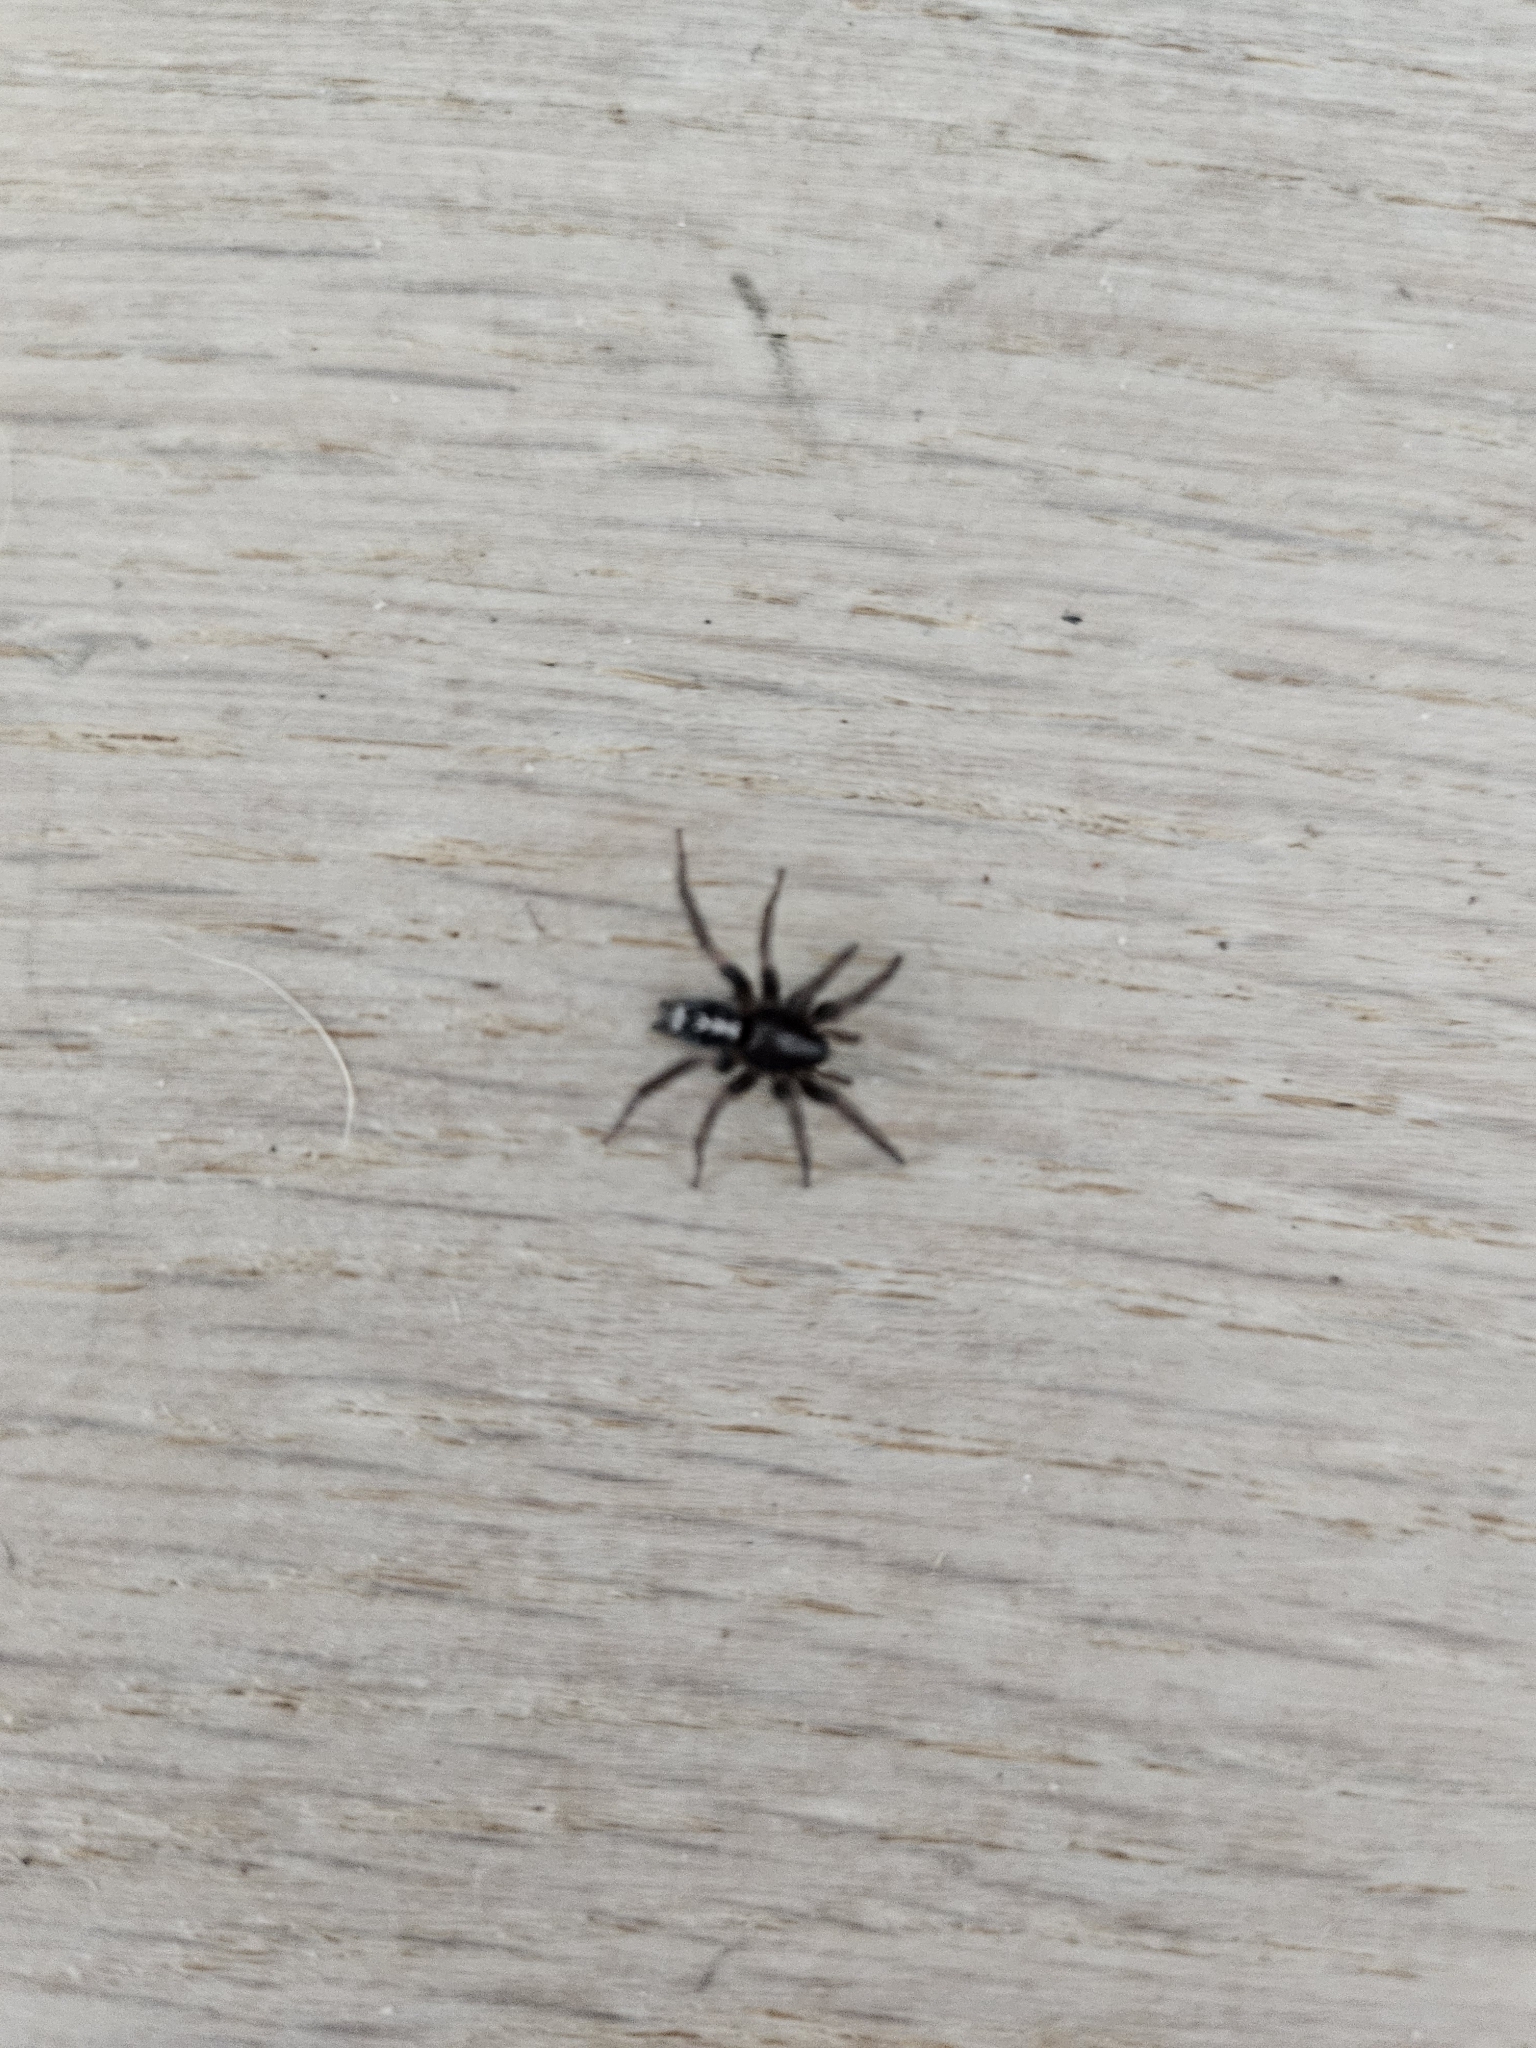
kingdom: Animalia
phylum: Arthropoda
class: Arachnida
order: Araneae
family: Gnaphosidae
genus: Herpyllus
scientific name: Herpyllus ecclesiasticus
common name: Eastern parson spider
